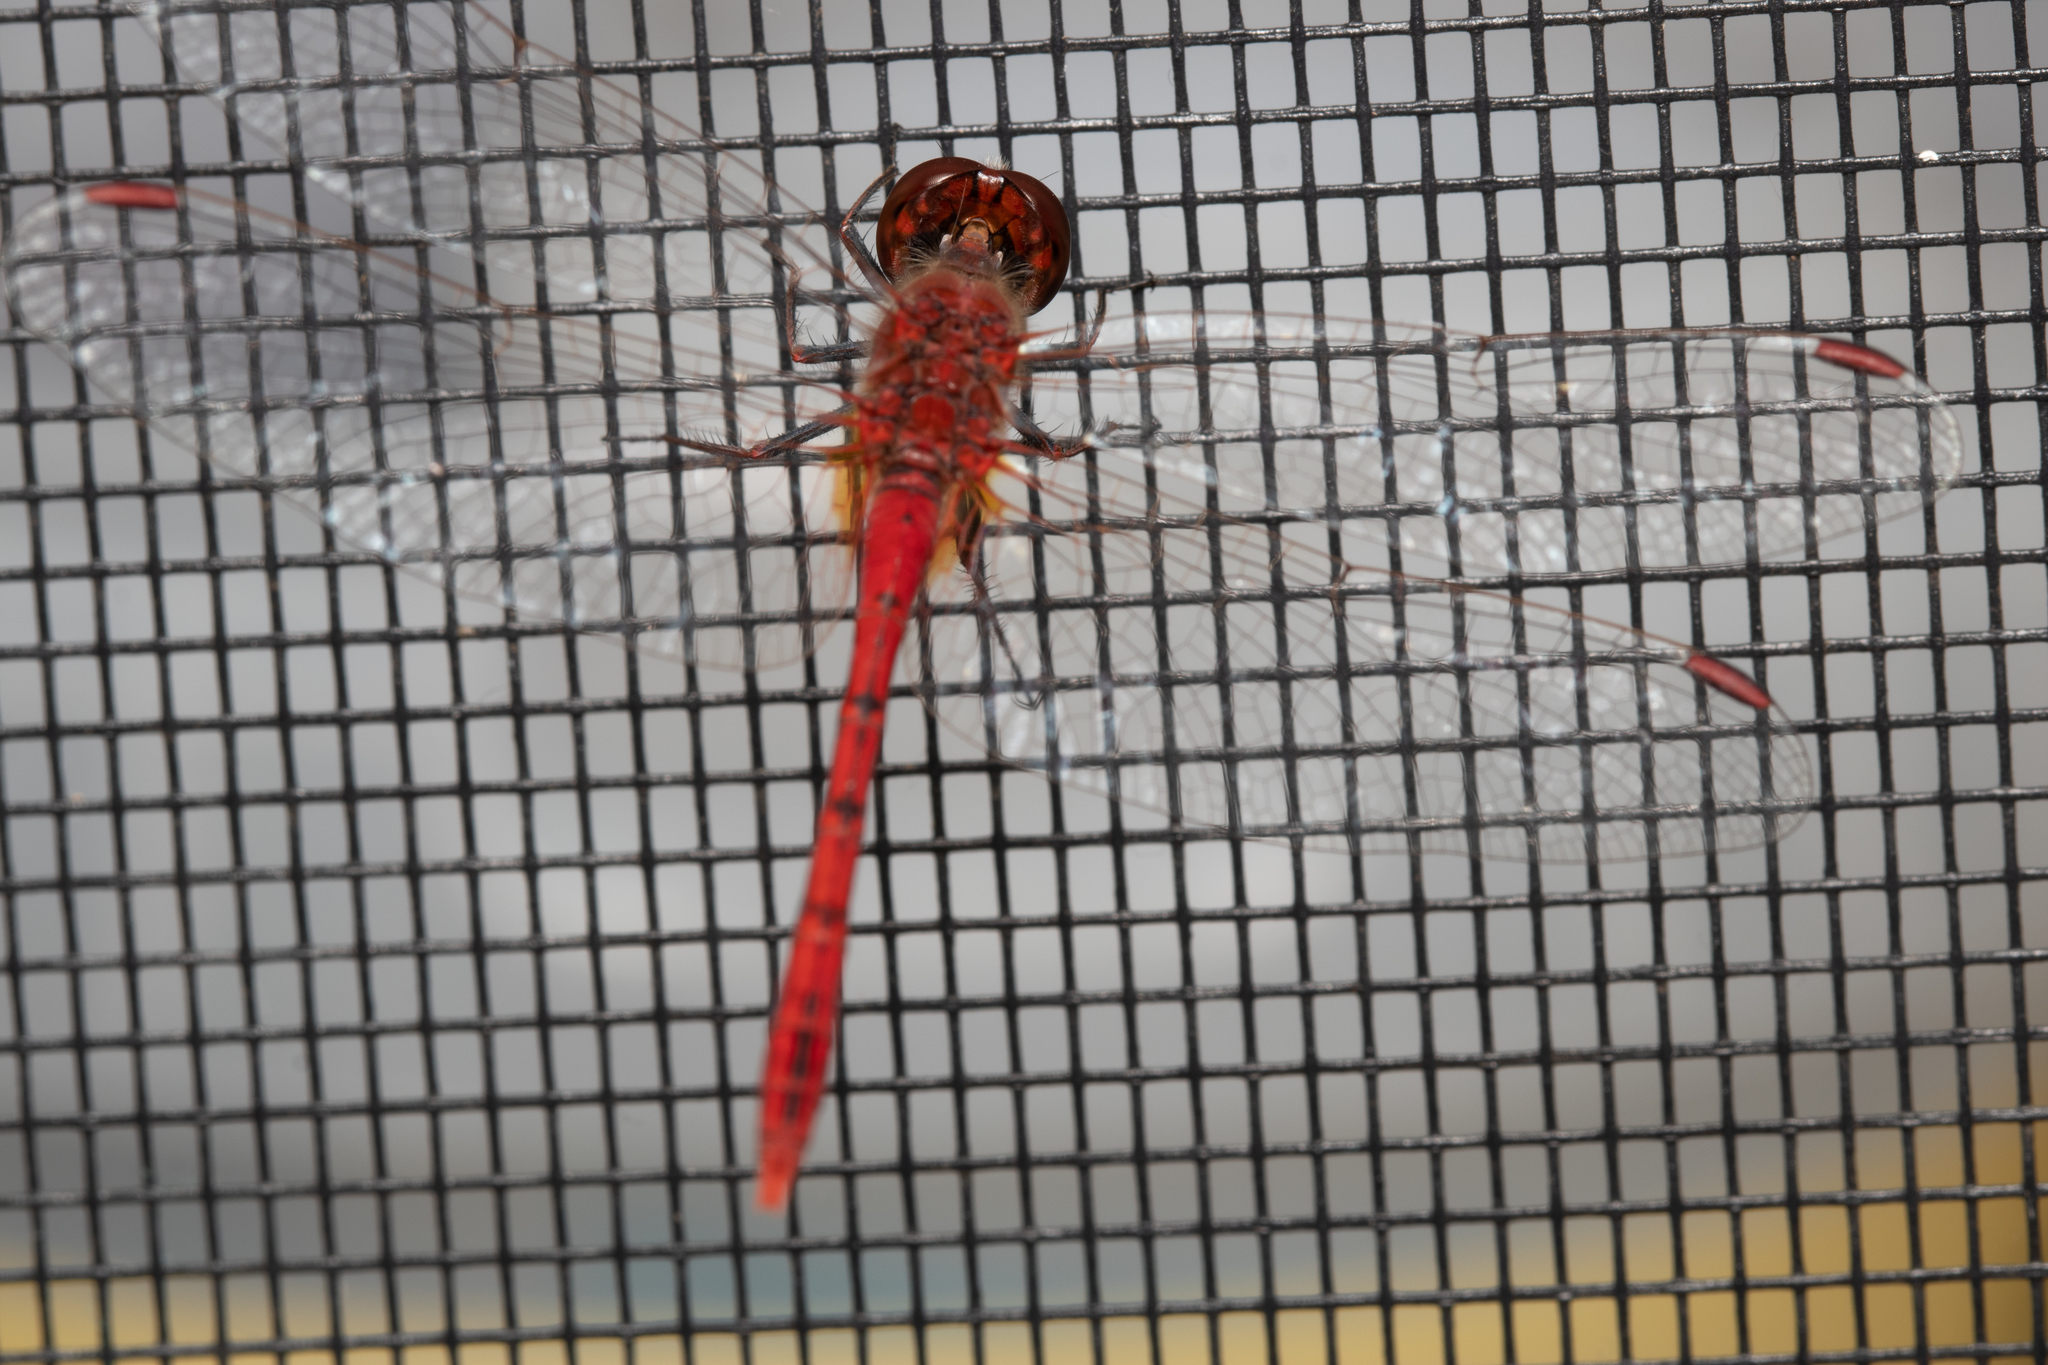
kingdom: Animalia
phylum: Arthropoda
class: Insecta
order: Odonata
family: Libellulidae
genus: Diplacodes
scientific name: Diplacodes bipunctata
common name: Red percher dragonfly
